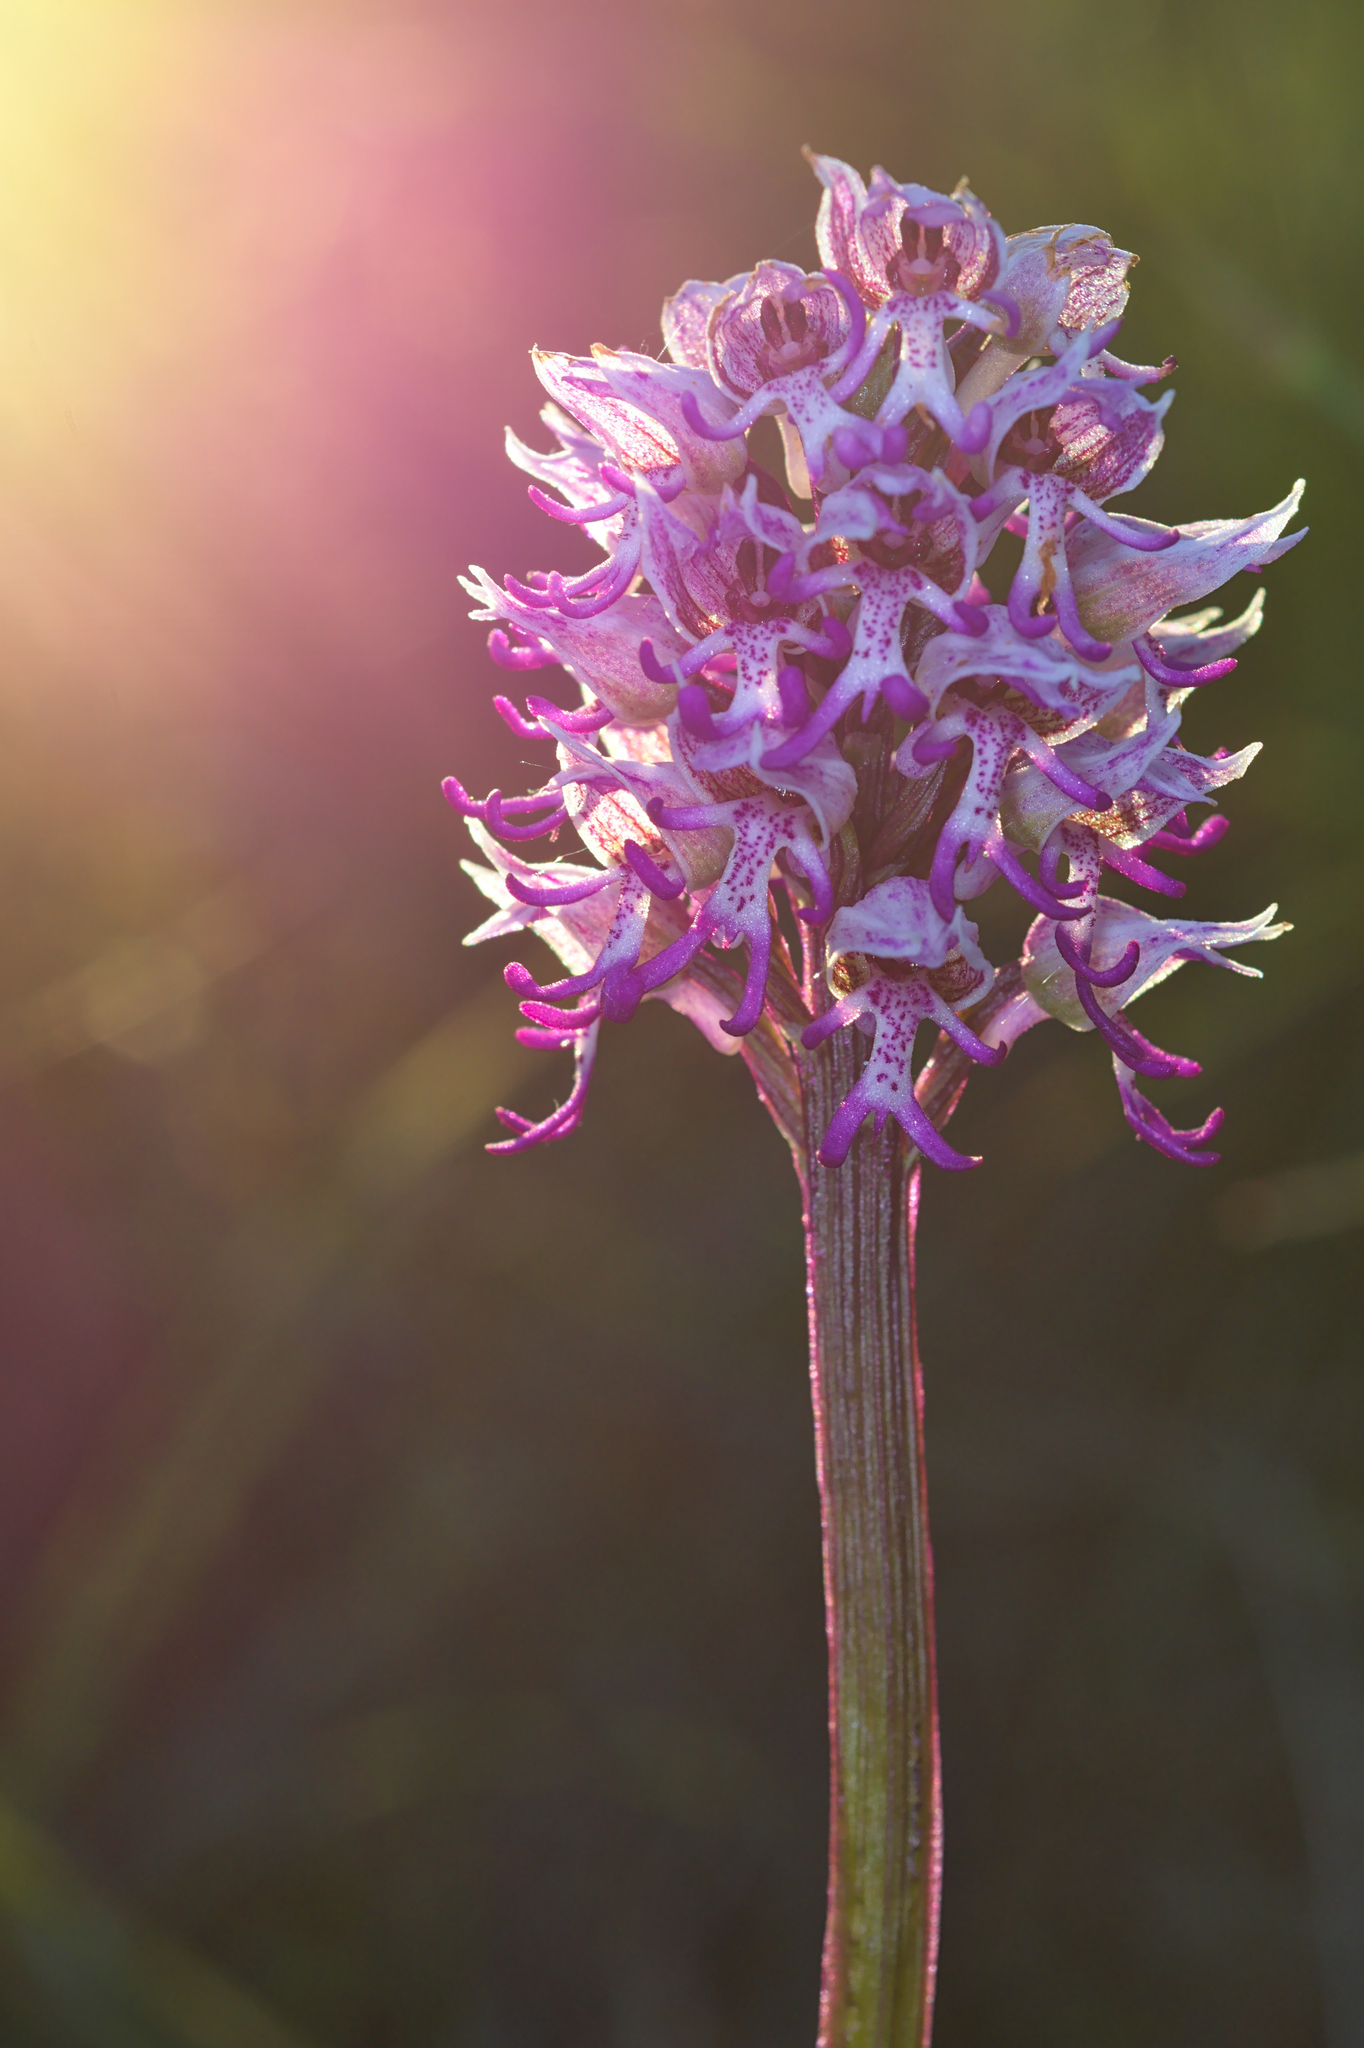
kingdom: Plantae
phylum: Tracheophyta
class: Liliopsida
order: Asparagales
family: Orchidaceae
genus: Orchis
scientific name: Orchis simia
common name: Monkey orchid
